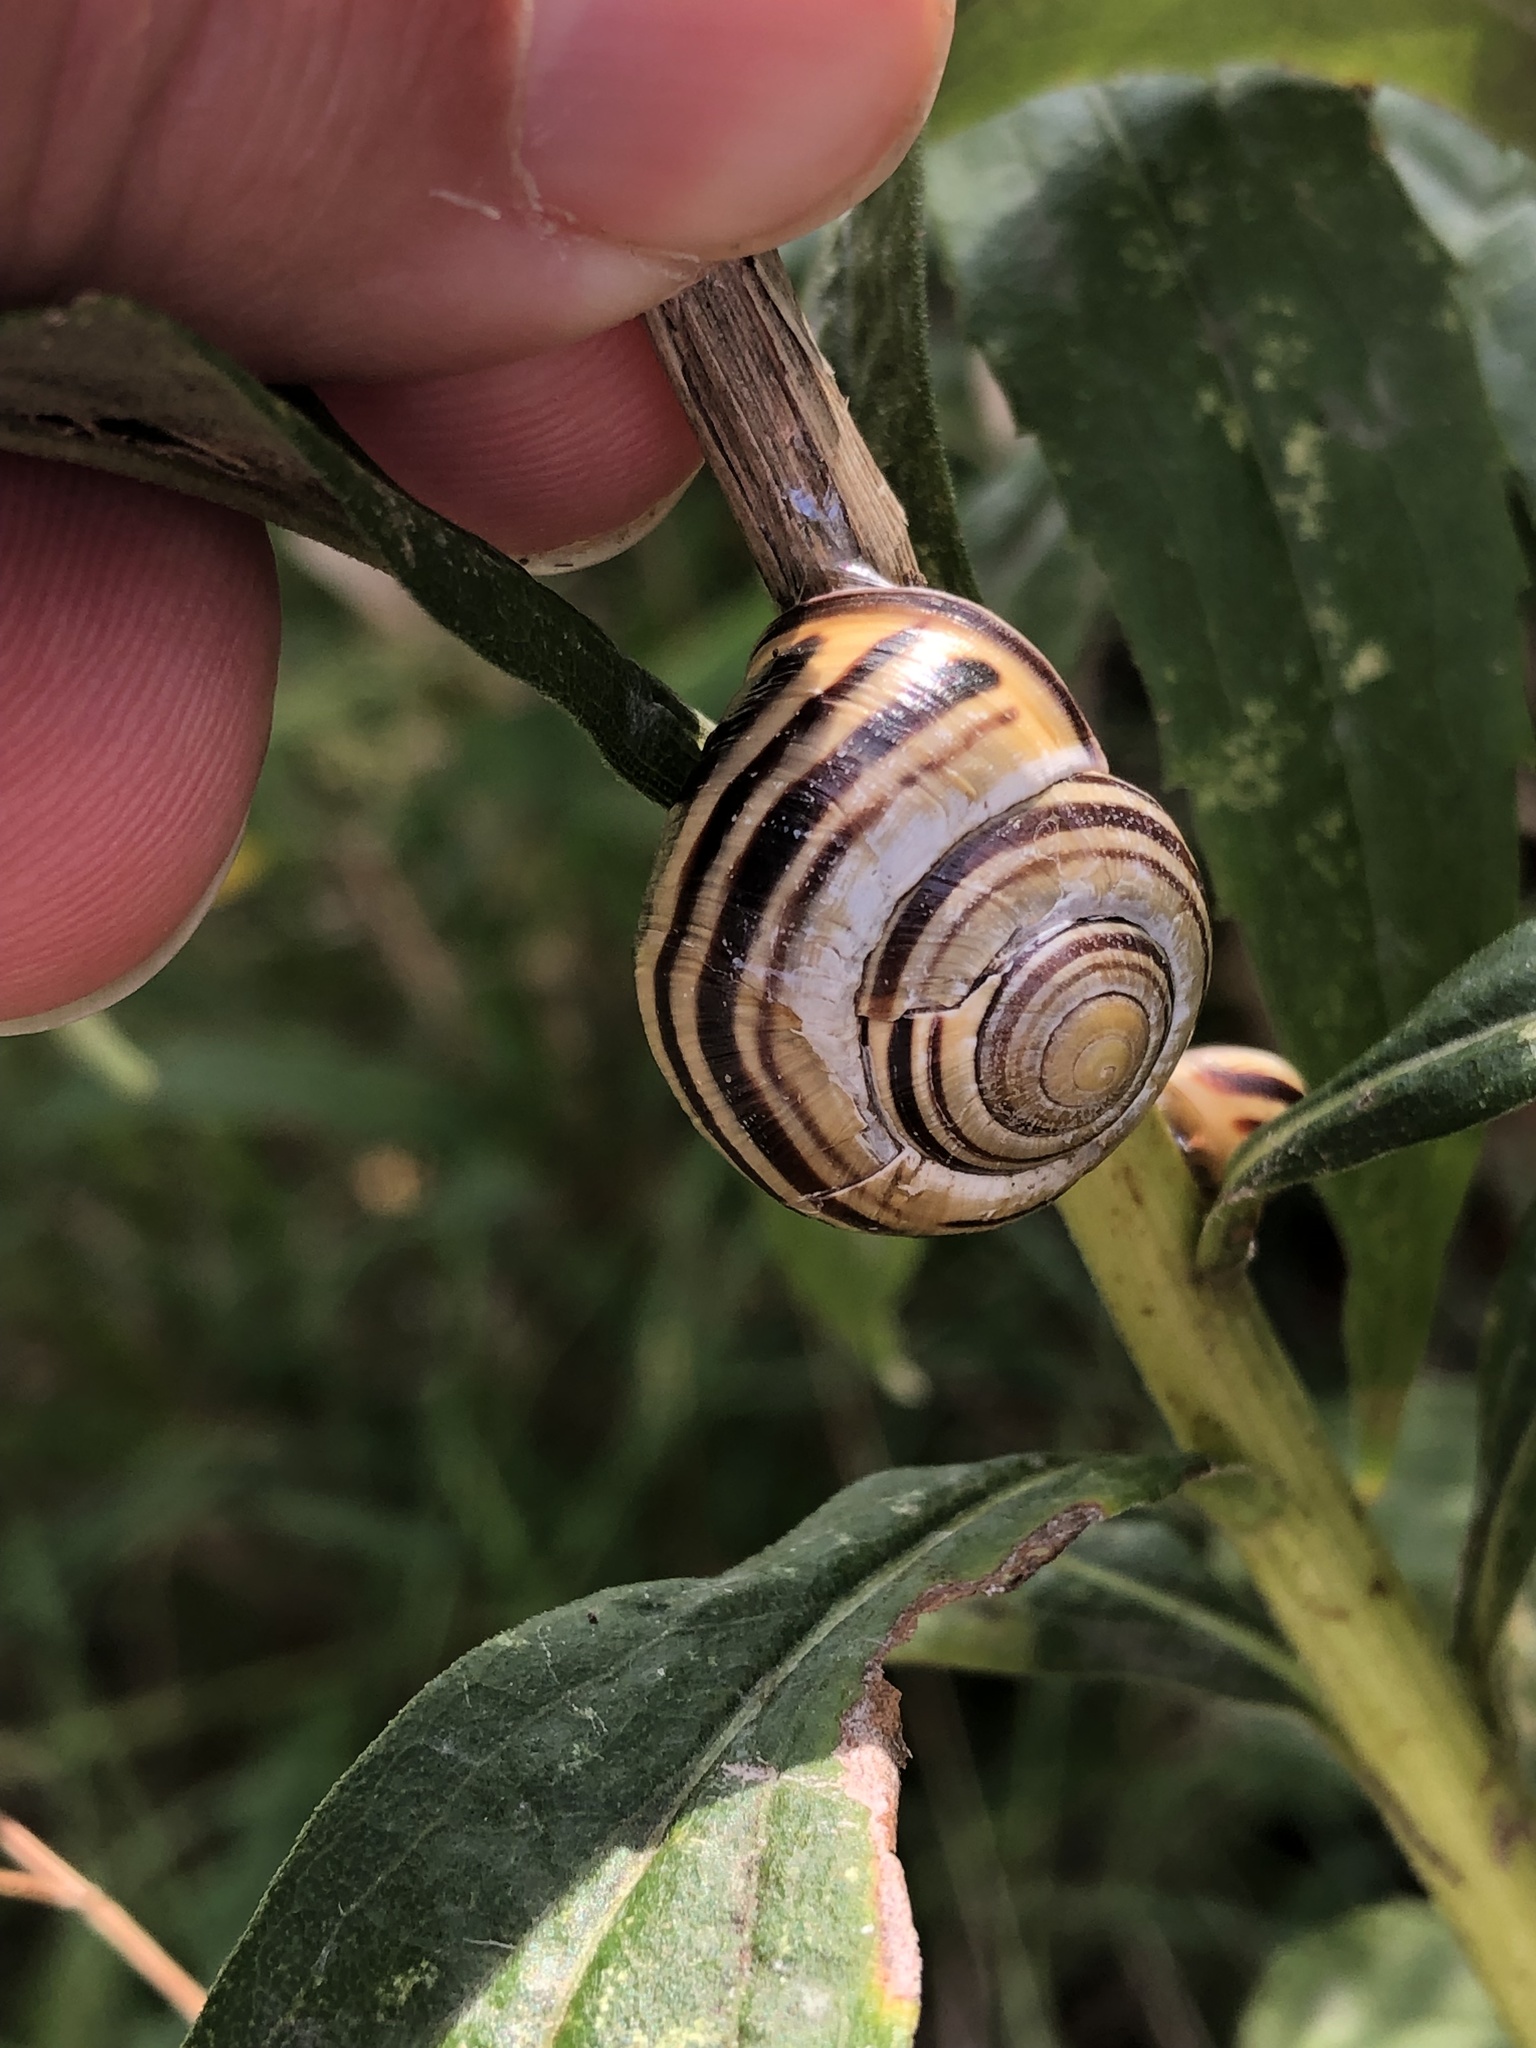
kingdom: Animalia
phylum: Mollusca
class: Gastropoda
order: Stylommatophora
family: Helicidae
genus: Cepaea
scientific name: Cepaea nemoralis
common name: Grovesnail
